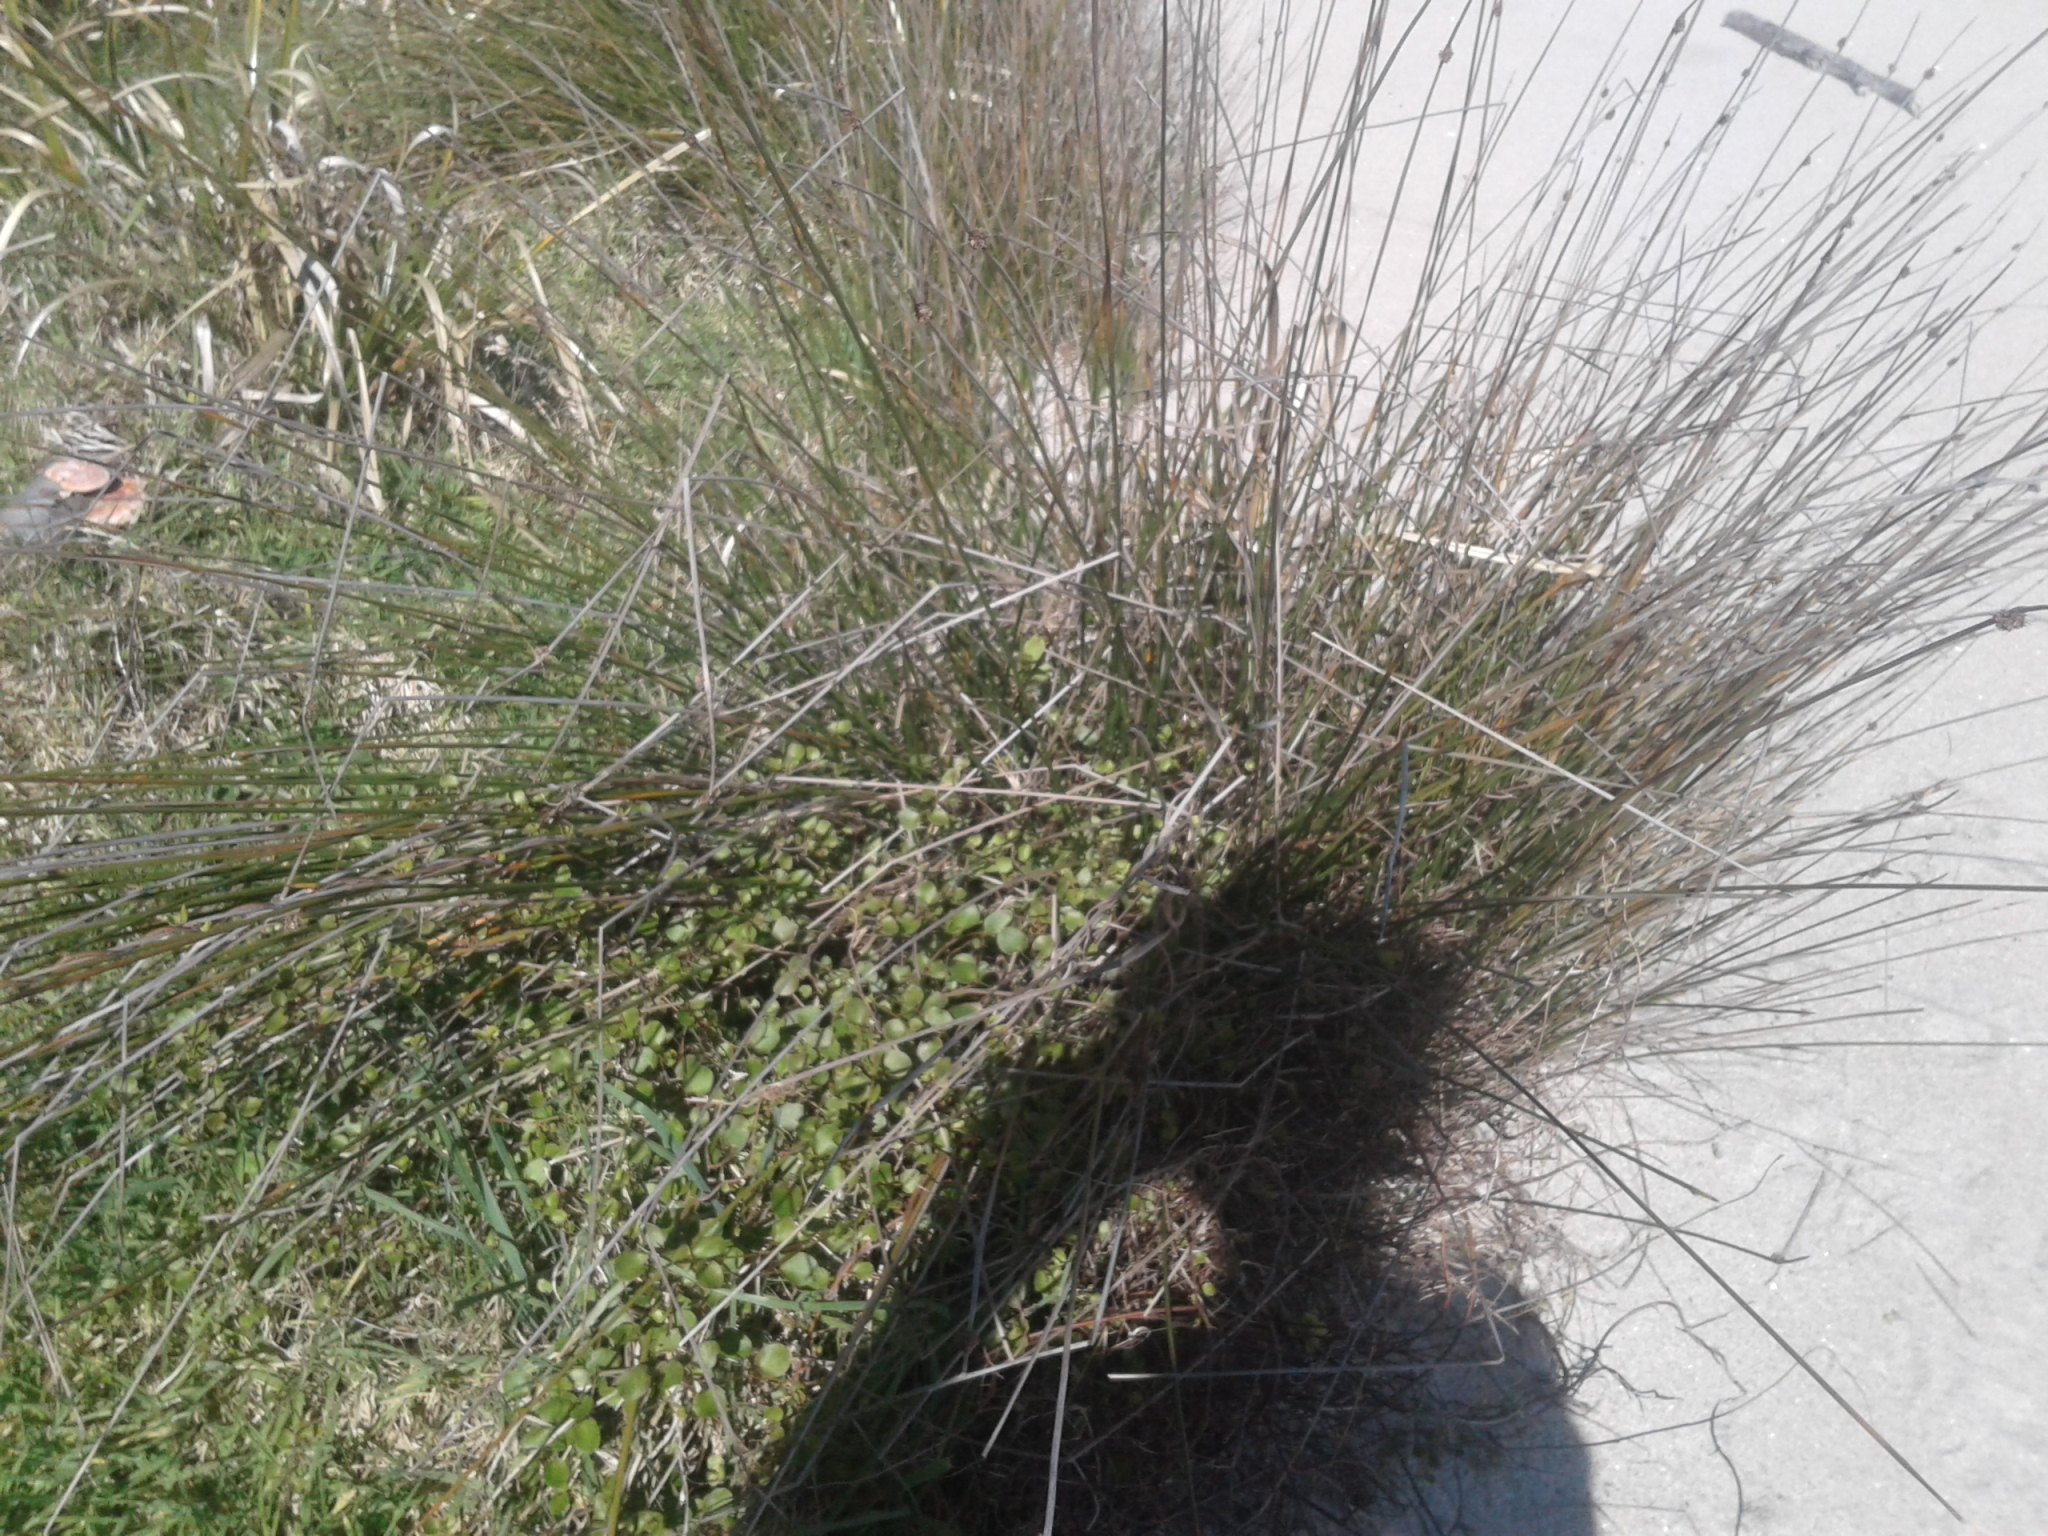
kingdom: Plantae
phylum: Tracheophyta
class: Liliopsida
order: Poales
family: Cyperaceae
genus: Ficinia
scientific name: Ficinia nodosa
